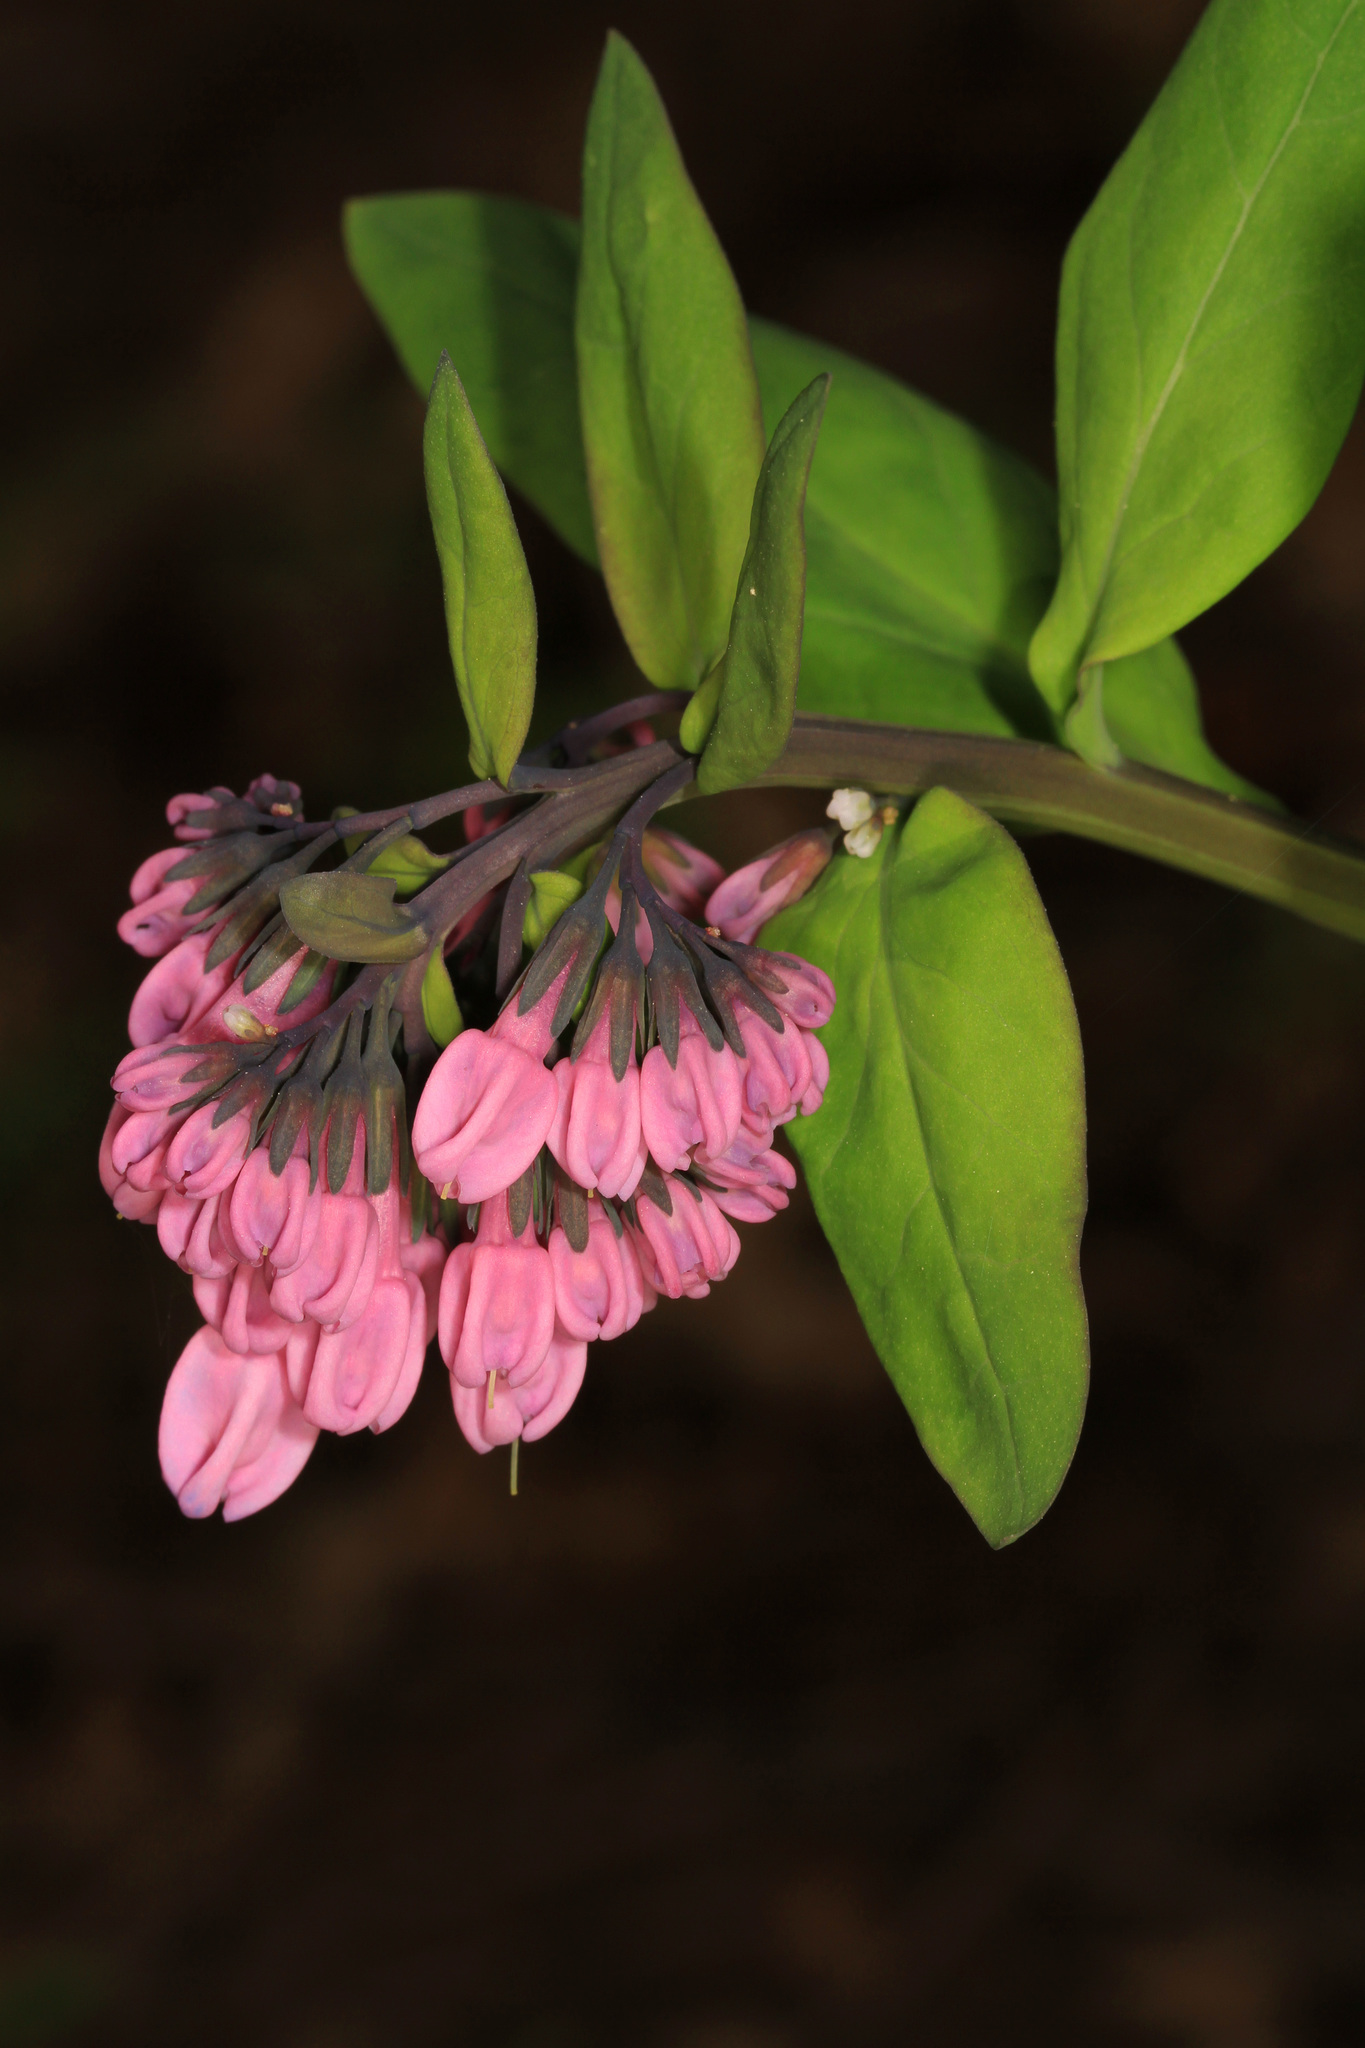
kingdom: Plantae
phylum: Tracheophyta
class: Magnoliopsida
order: Boraginales
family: Boraginaceae
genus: Mertensia
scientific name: Mertensia virginica
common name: Virginia bluebells
